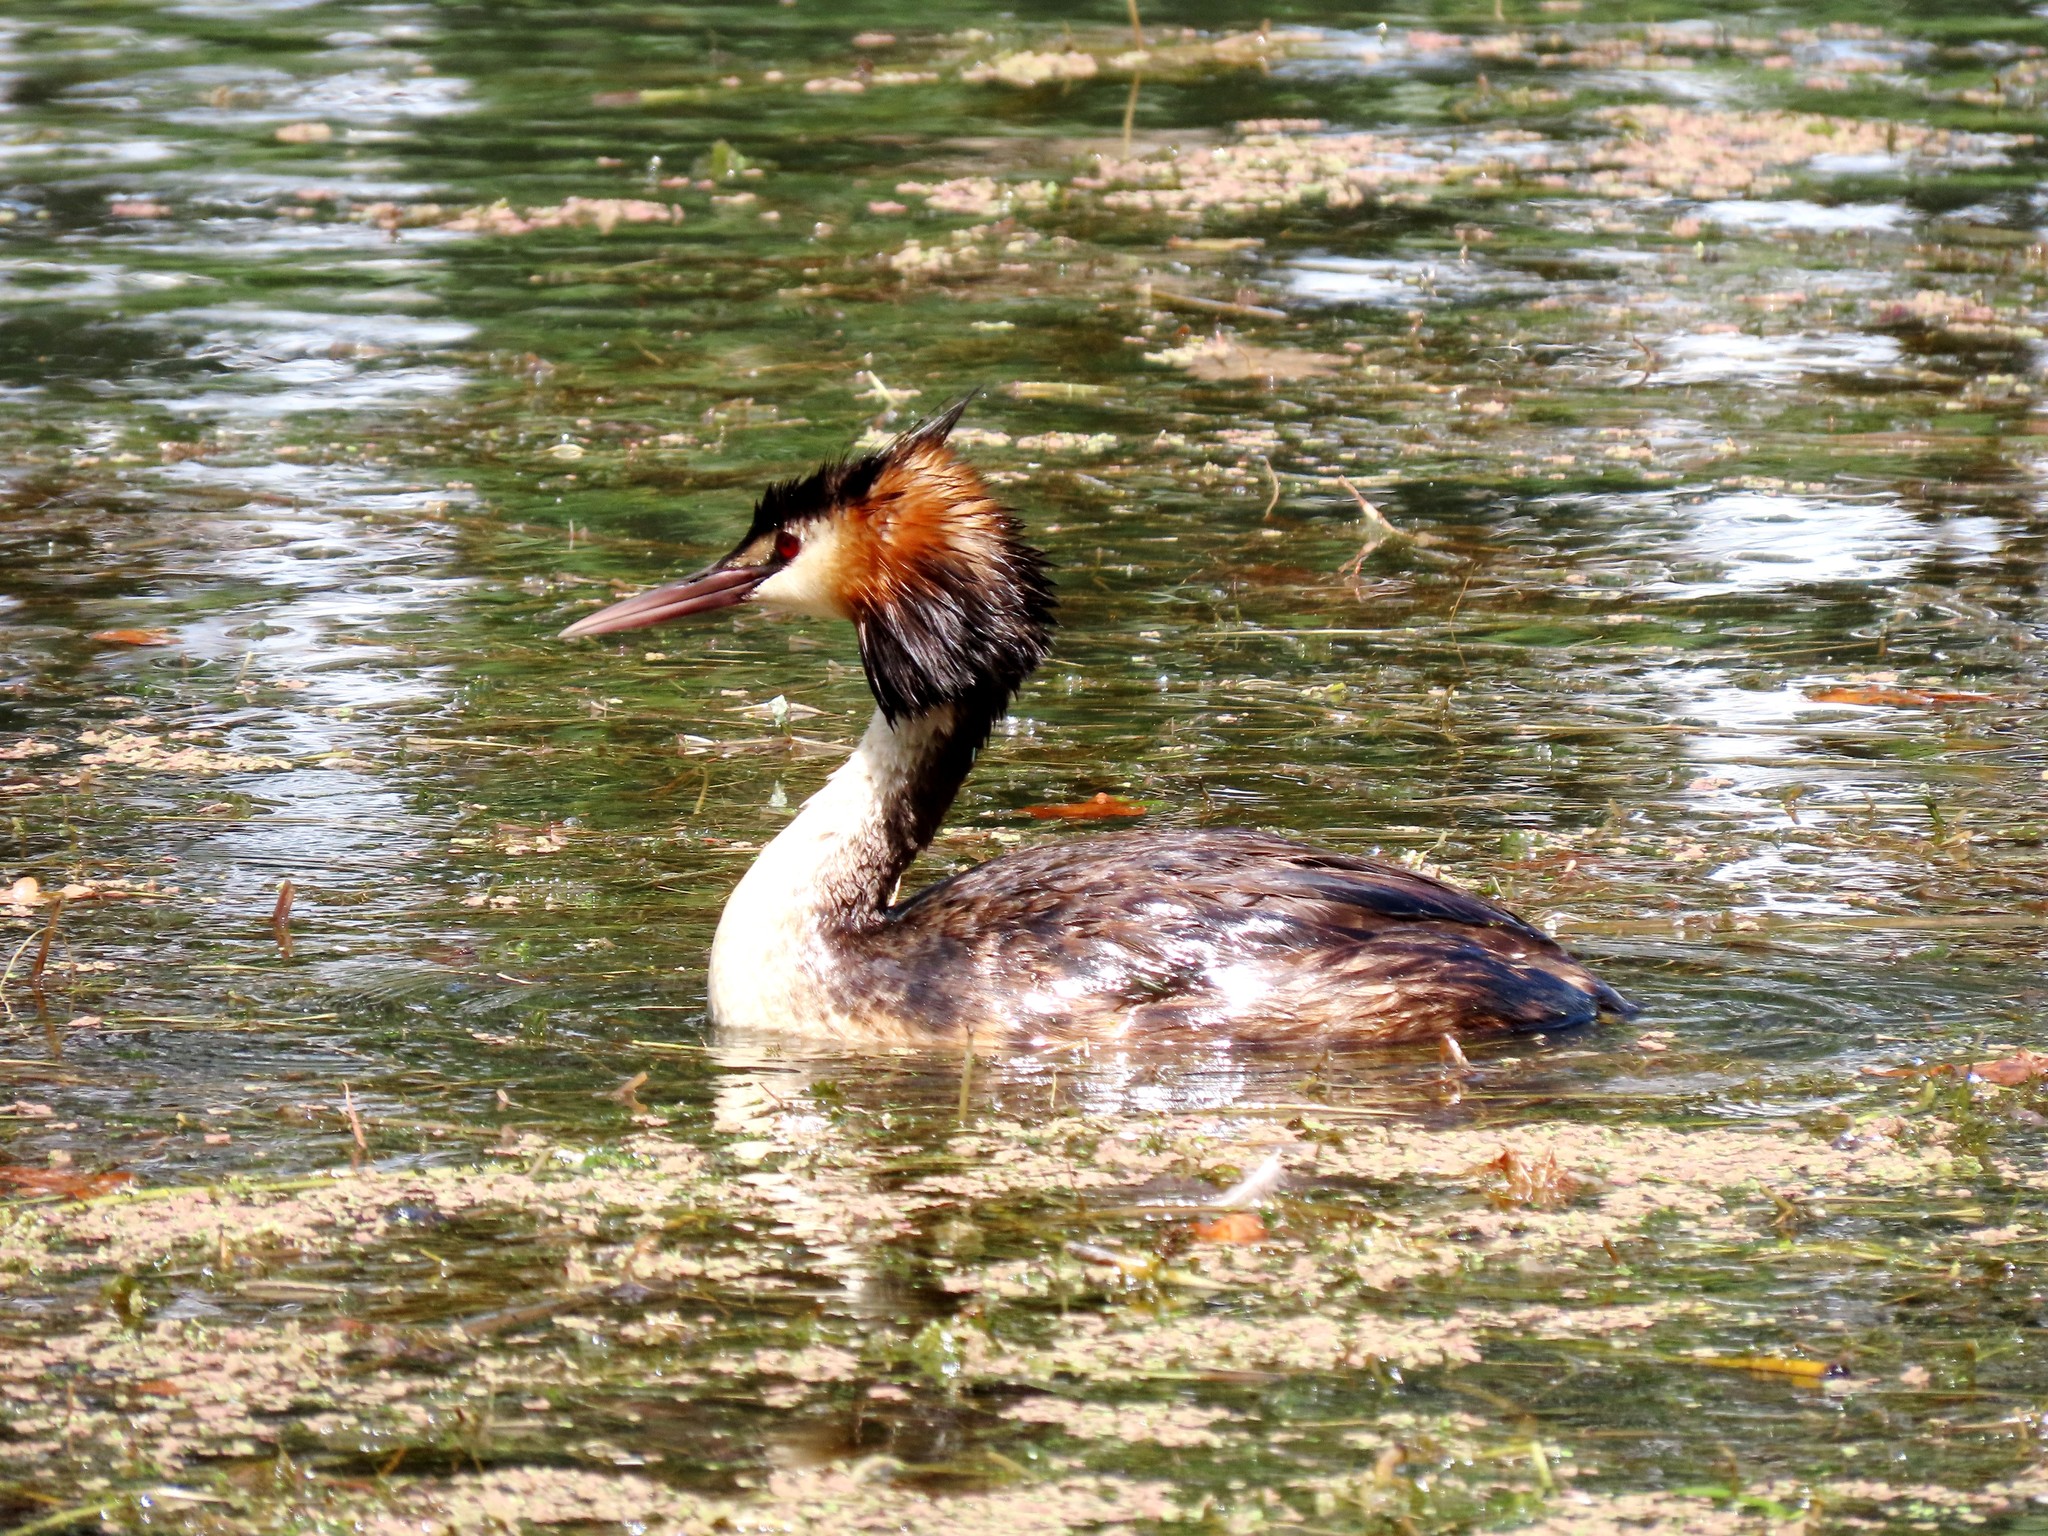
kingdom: Animalia
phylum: Chordata
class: Aves
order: Podicipediformes
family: Podicipedidae
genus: Podiceps
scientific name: Podiceps cristatus
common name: Great crested grebe
